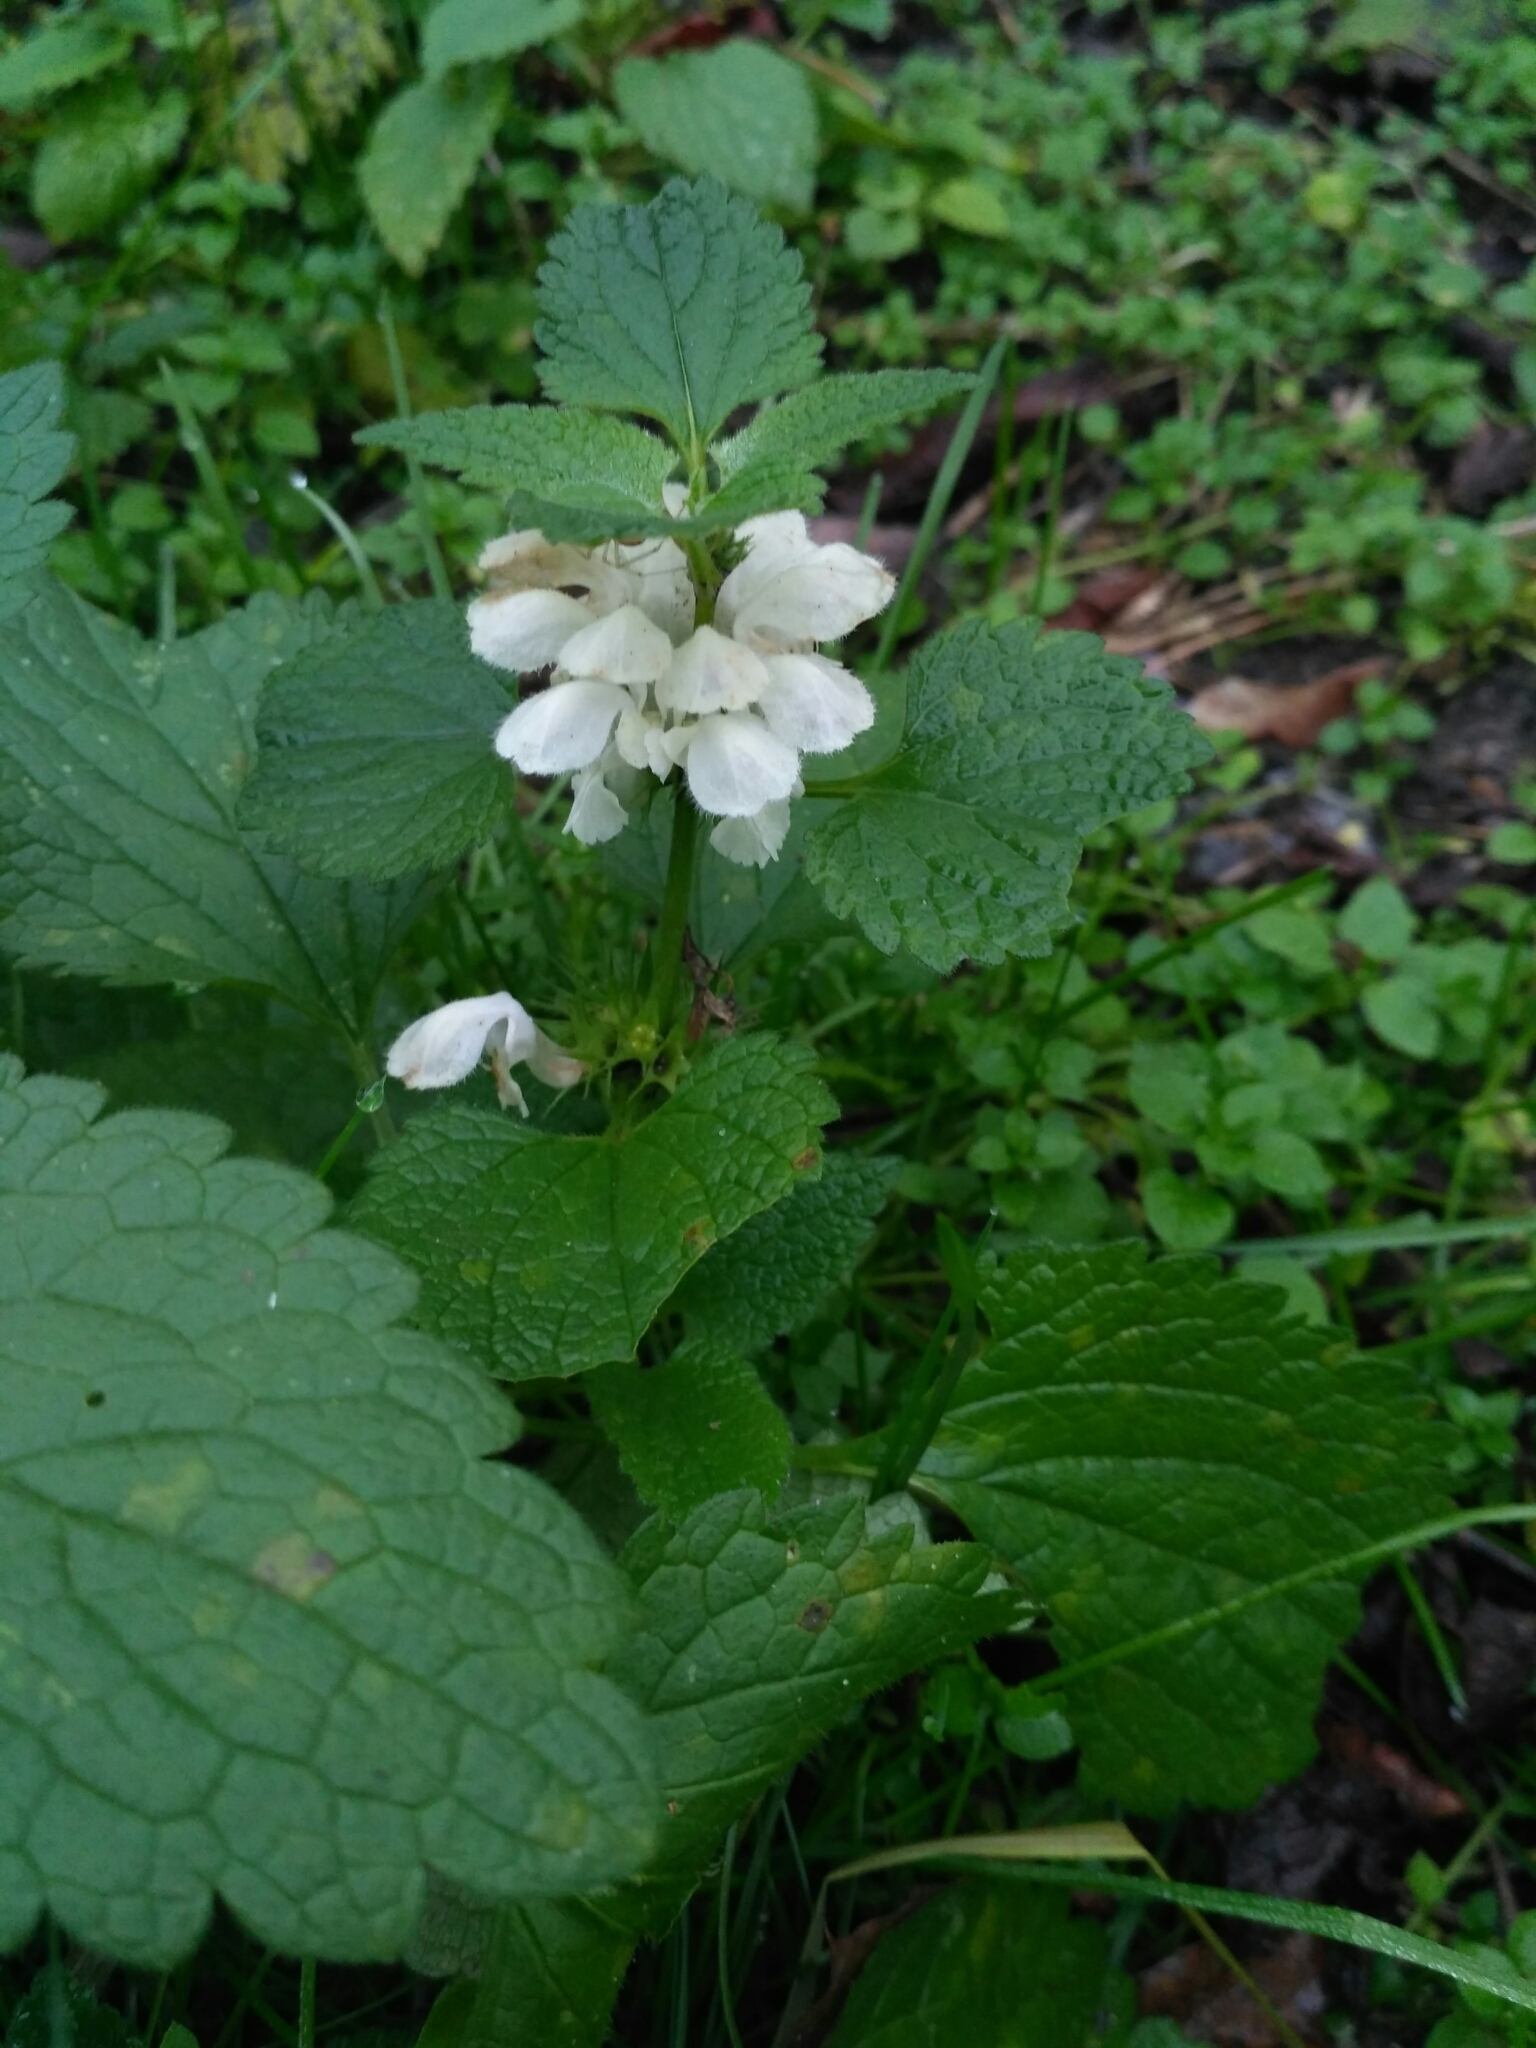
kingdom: Plantae
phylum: Tracheophyta
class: Magnoliopsida
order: Lamiales
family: Lamiaceae
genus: Lamium
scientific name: Lamium album
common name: White dead-nettle
